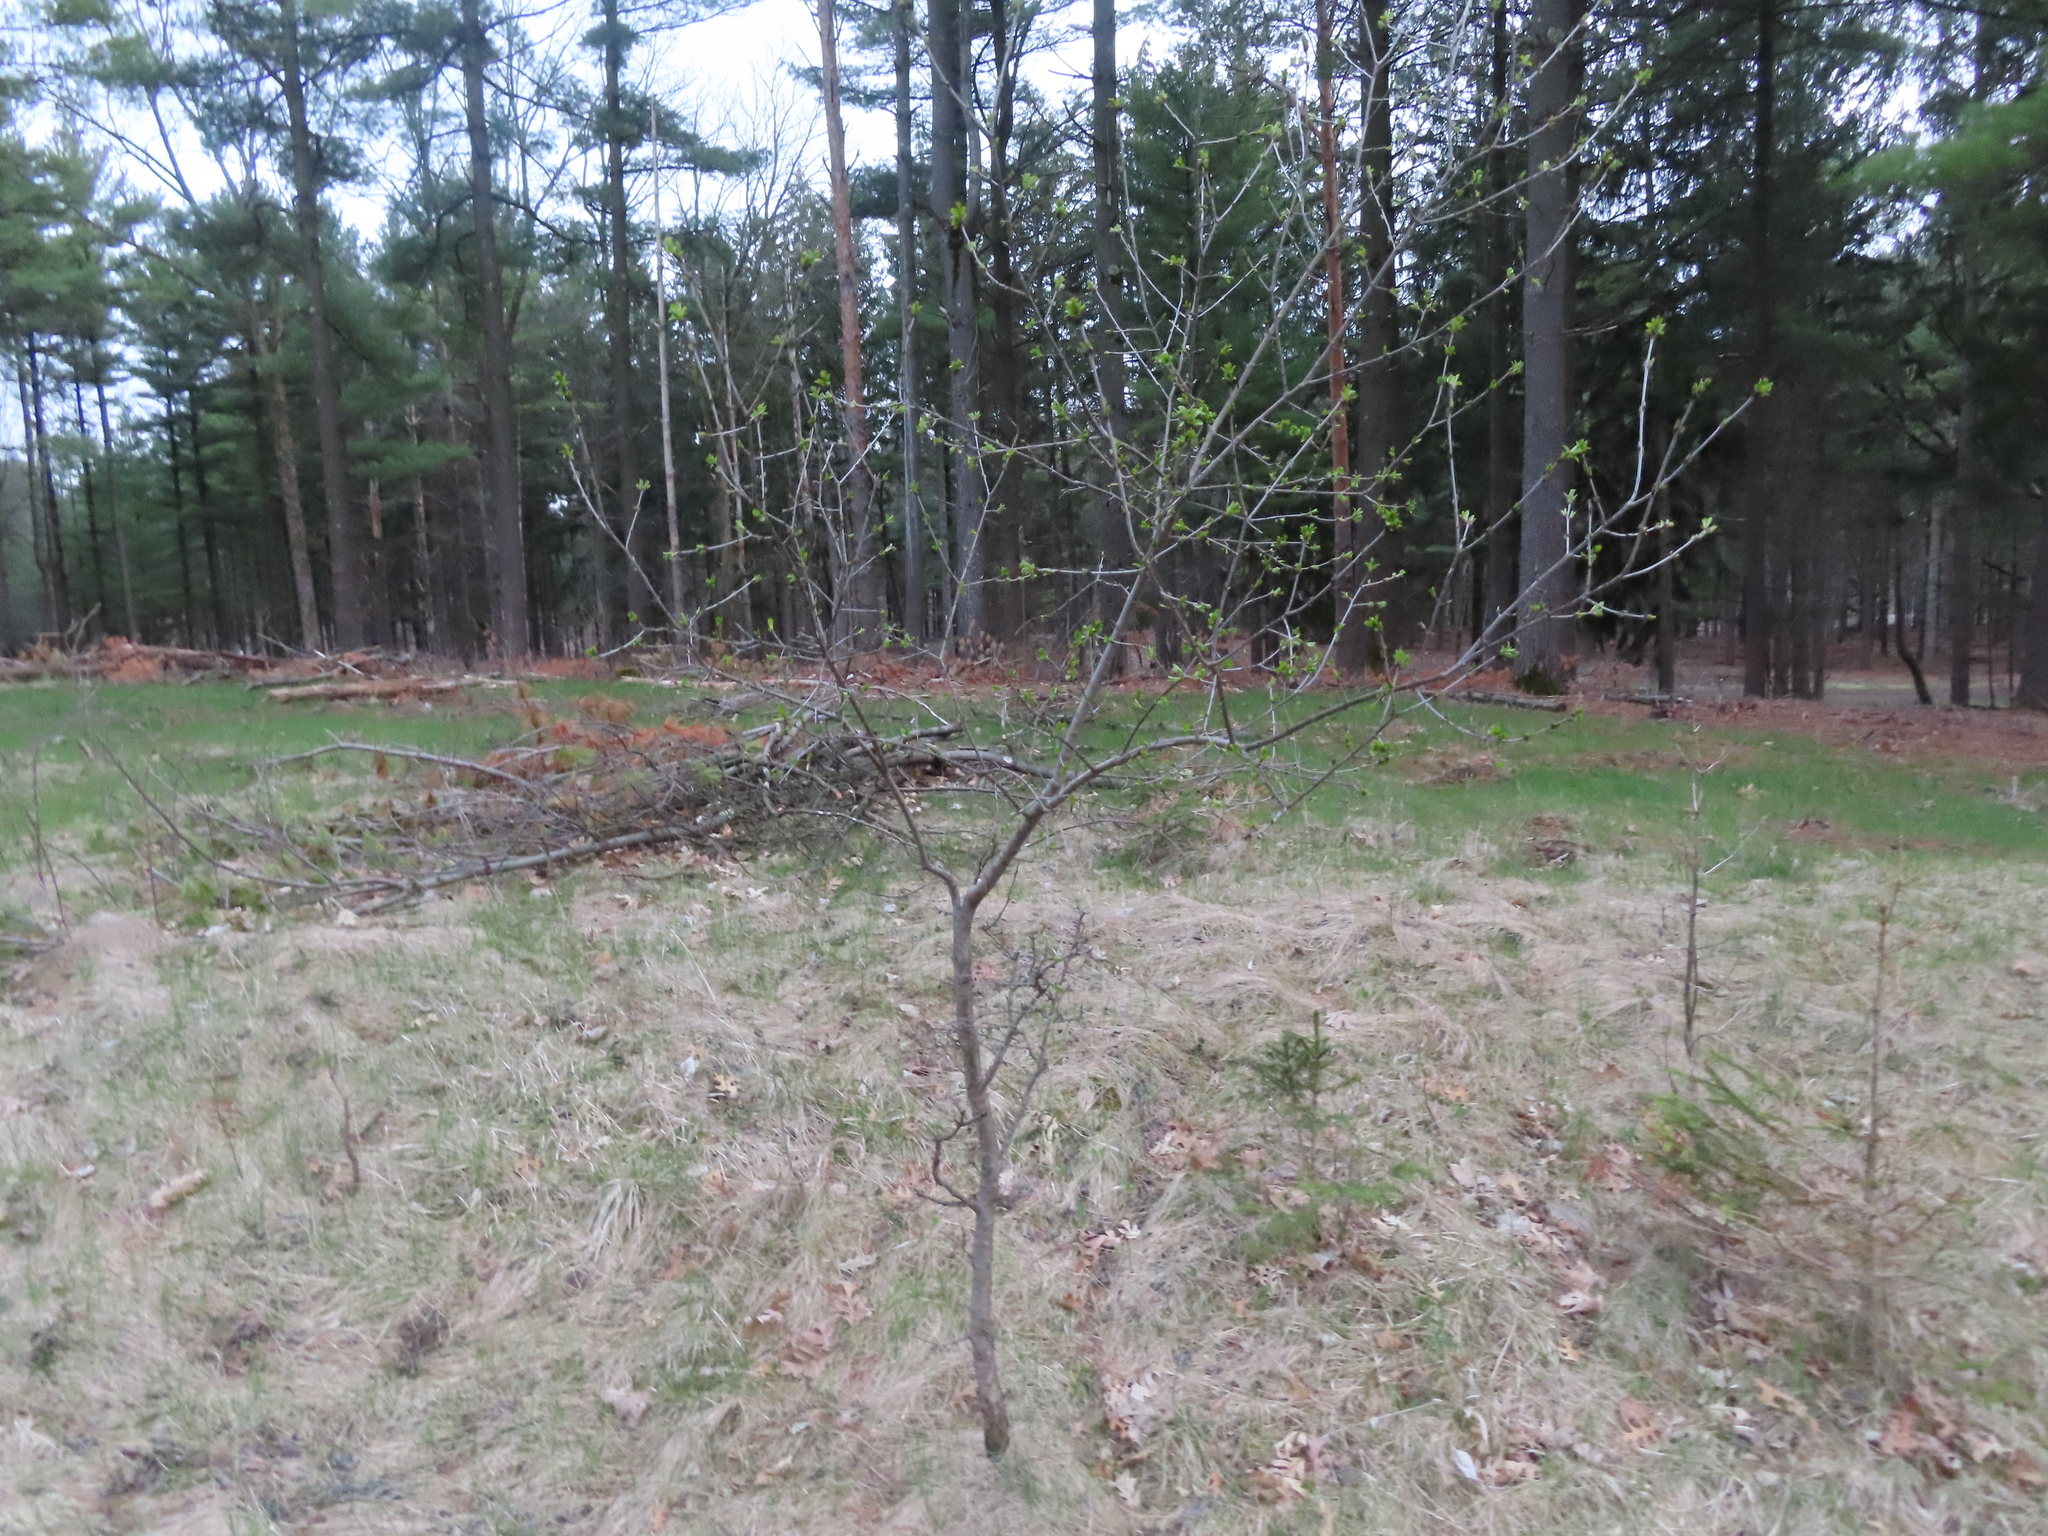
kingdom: Plantae
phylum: Tracheophyta
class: Magnoliopsida
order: Rosales
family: Rhamnaceae
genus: Rhamnus
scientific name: Rhamnus cathartica
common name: Common buckthorn
